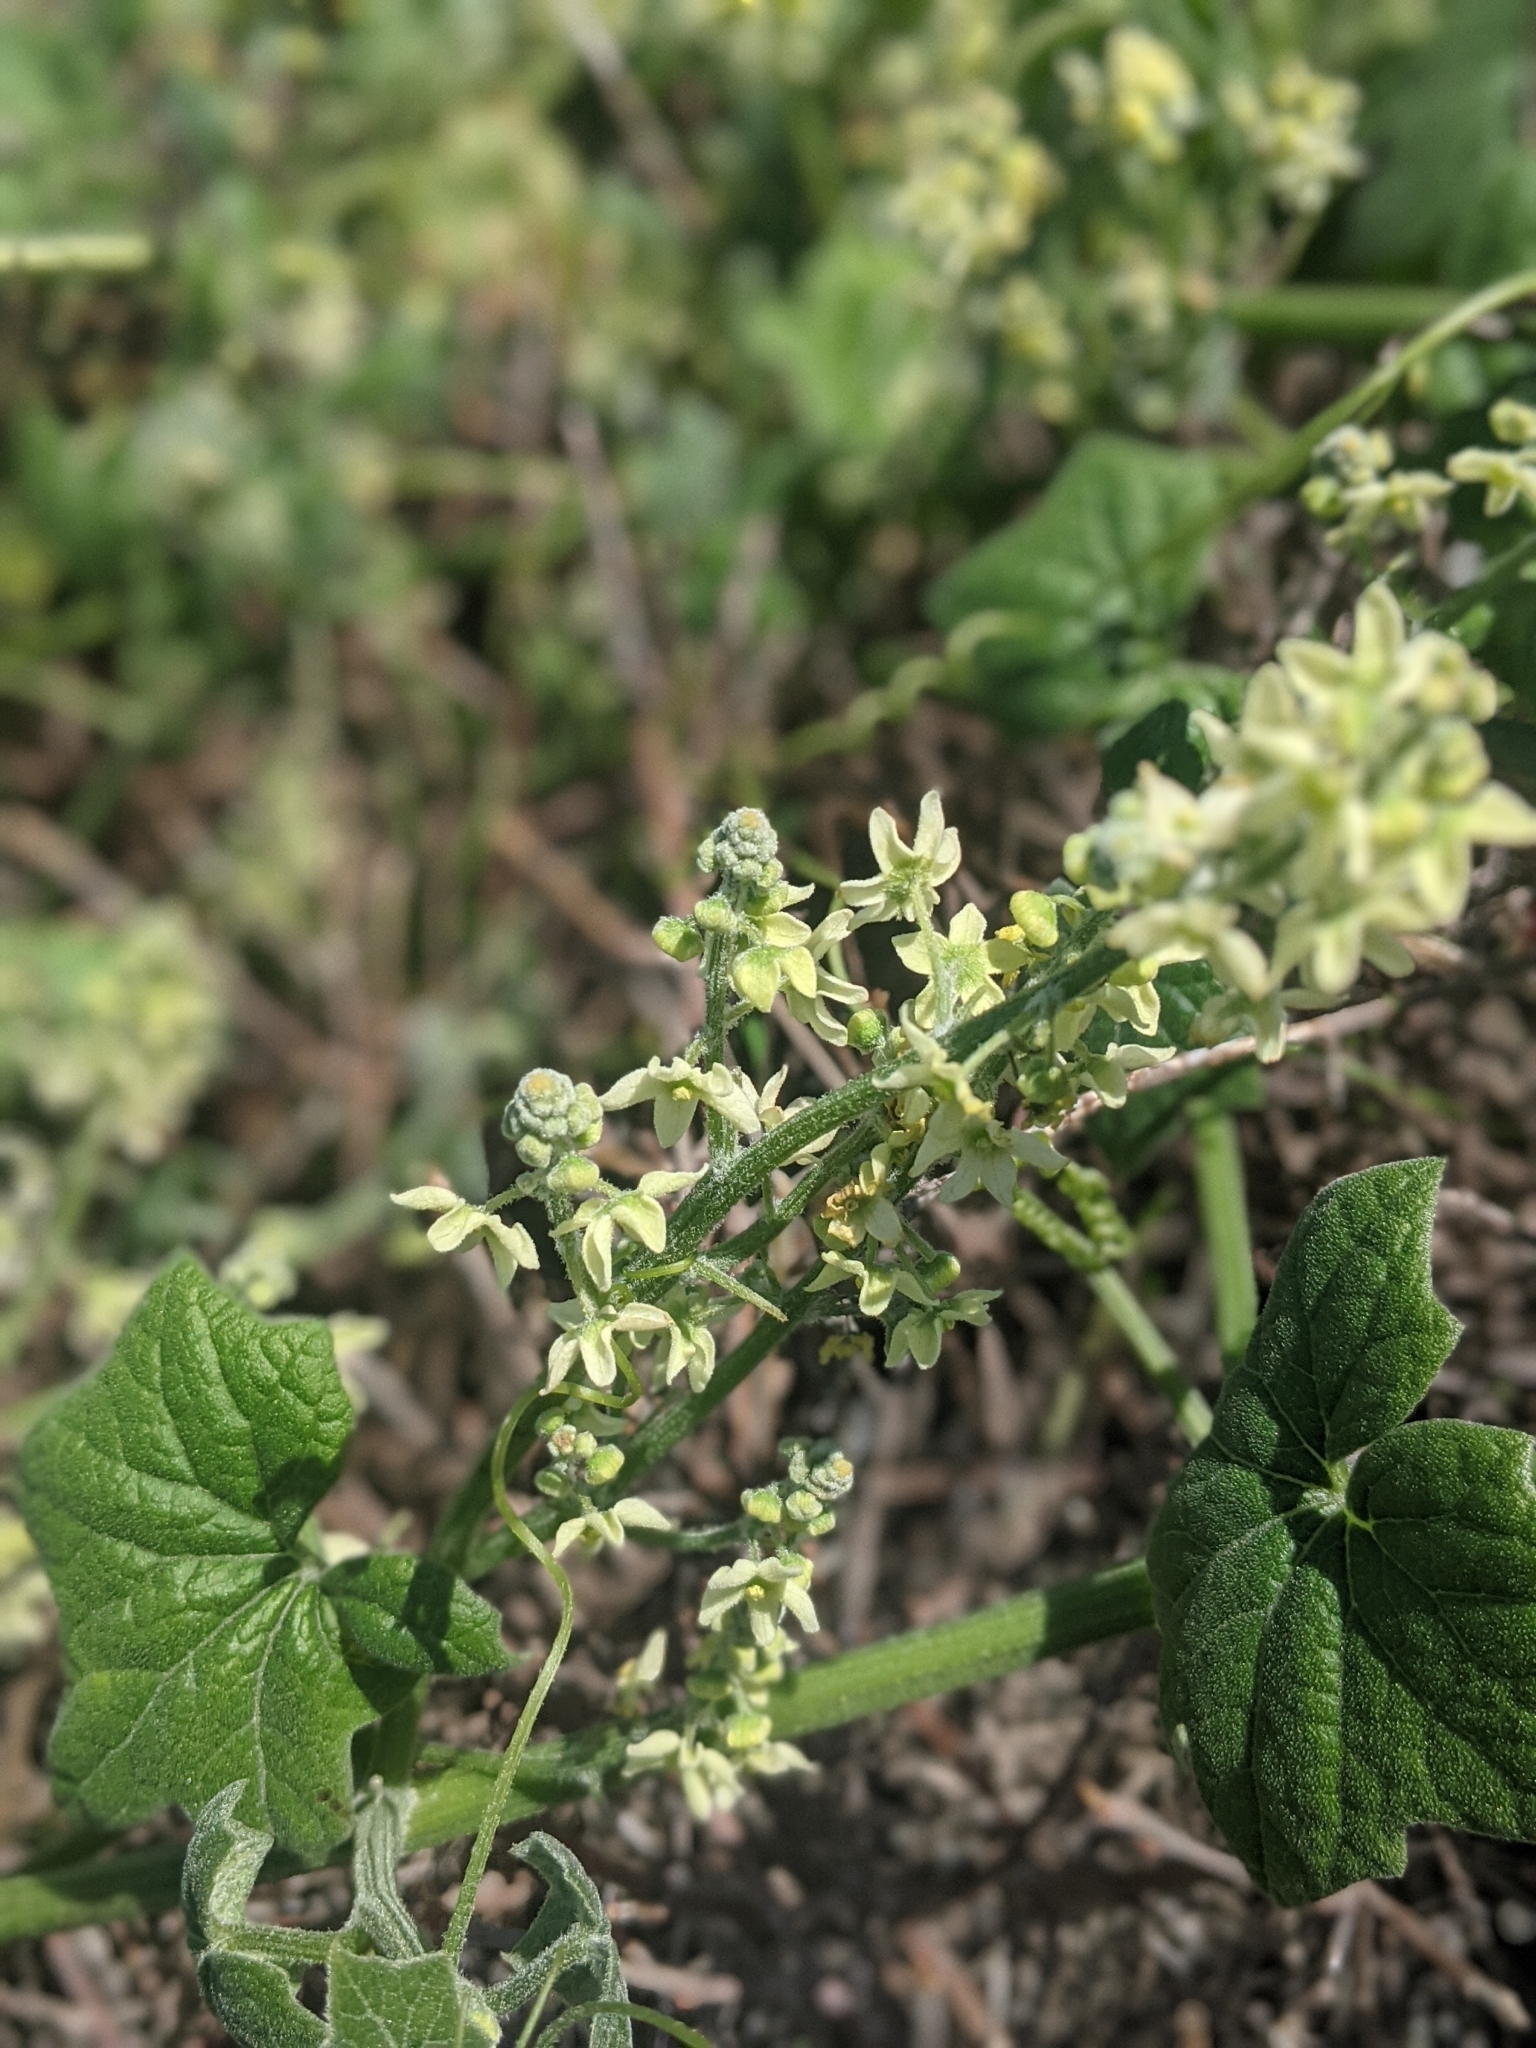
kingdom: Plantae
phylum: Tracheophyta
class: Magnoliopsida
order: Cucurbitales
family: Cucurbitaceae
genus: Marah
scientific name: Marah fabacea
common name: California manroot
